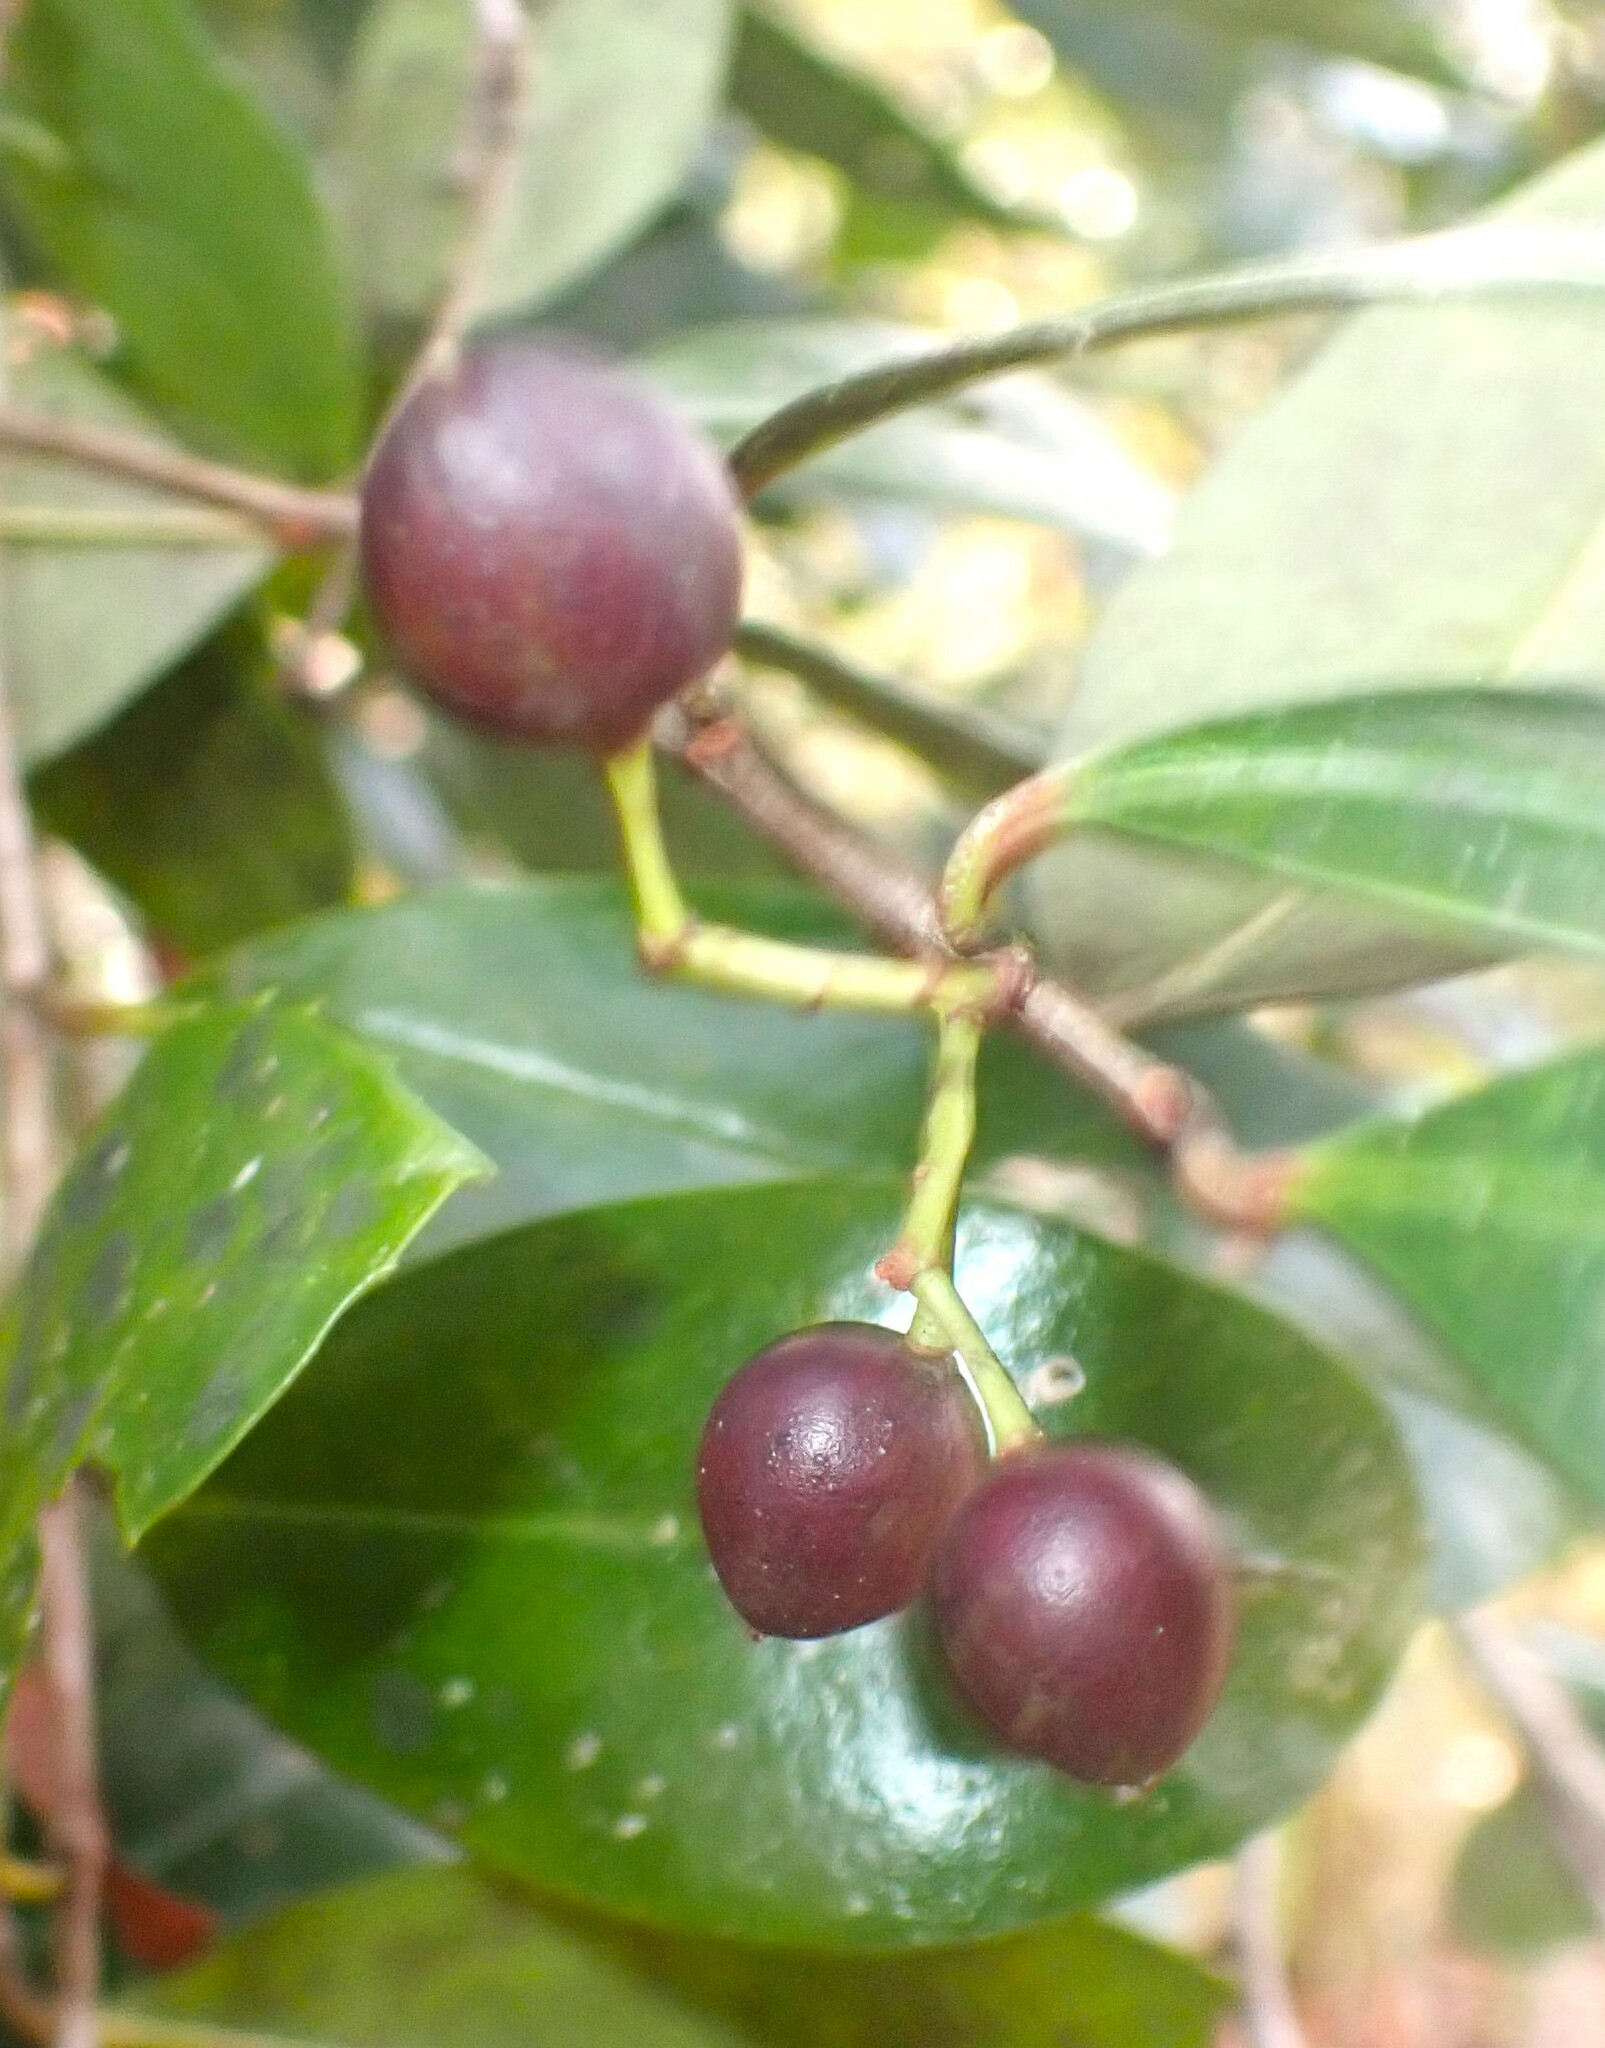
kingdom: Plantae
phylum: Tracheophyta
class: Magnoliopsida
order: Rosales
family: Rosaceae
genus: Prunus
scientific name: Prunus caroliniana
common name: Carolina laurel cherry
